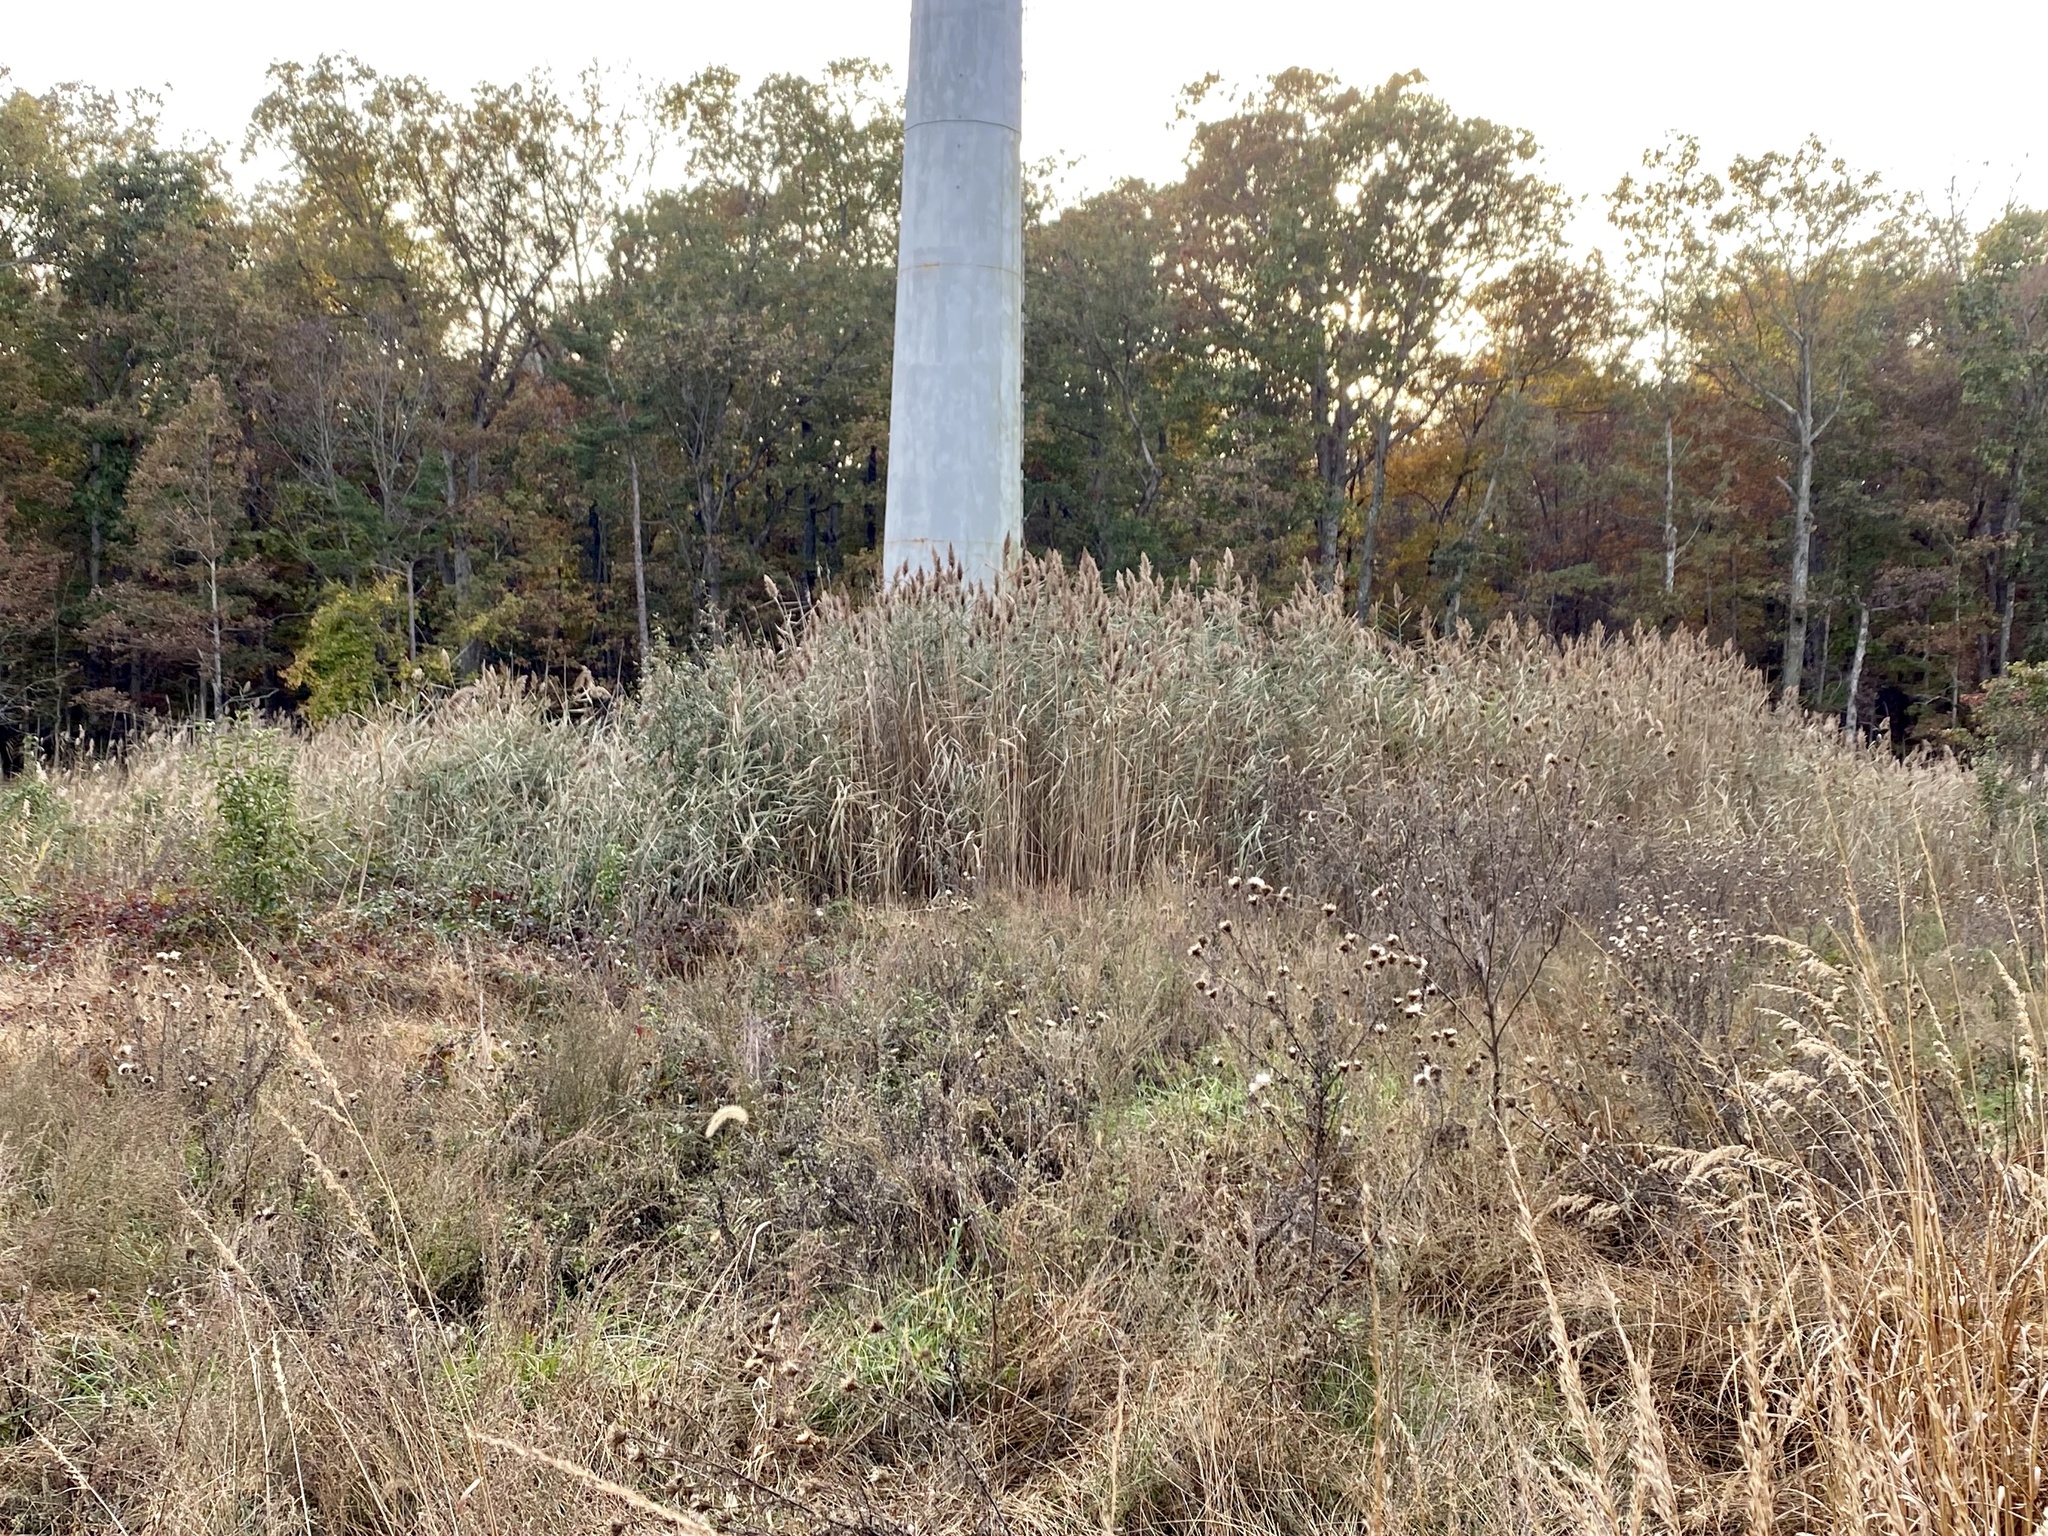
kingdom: Plantae
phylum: Tracheophyta
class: Liliopsida
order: Poales
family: Poaceae
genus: Phragmites
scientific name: Phragmites australis
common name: Common reed
